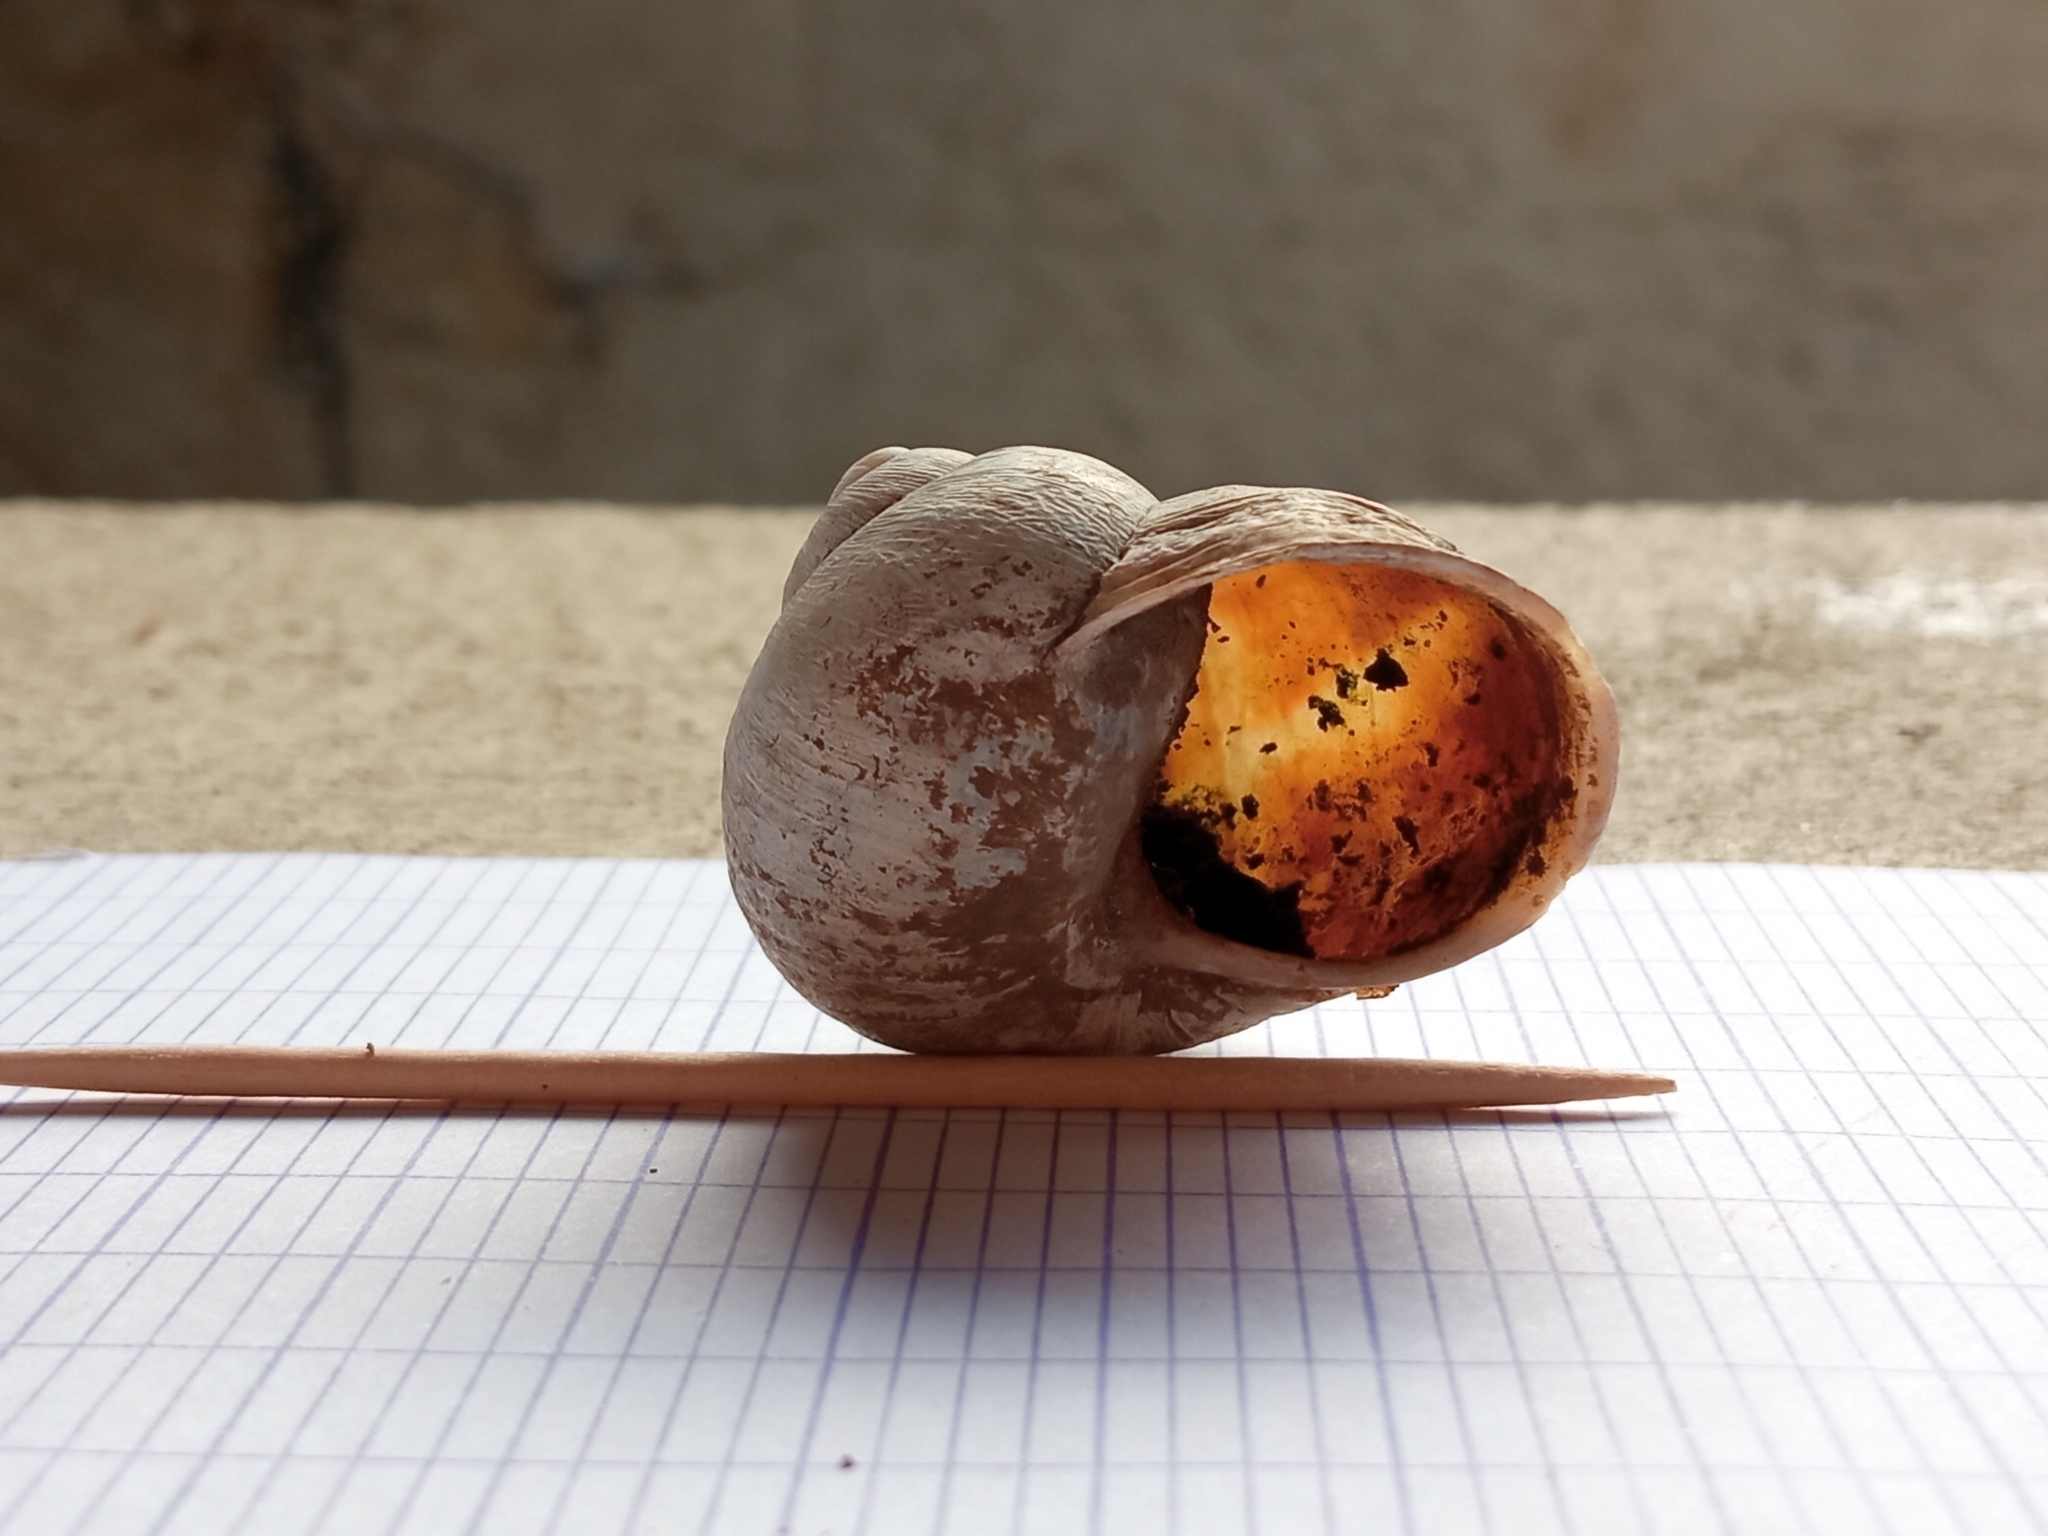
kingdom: Animalia
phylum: Mollusca
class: Gastropoda
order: Stylommatophora
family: Helicidae
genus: Cornu
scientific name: Cornu aspersum
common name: Brown garden snail
